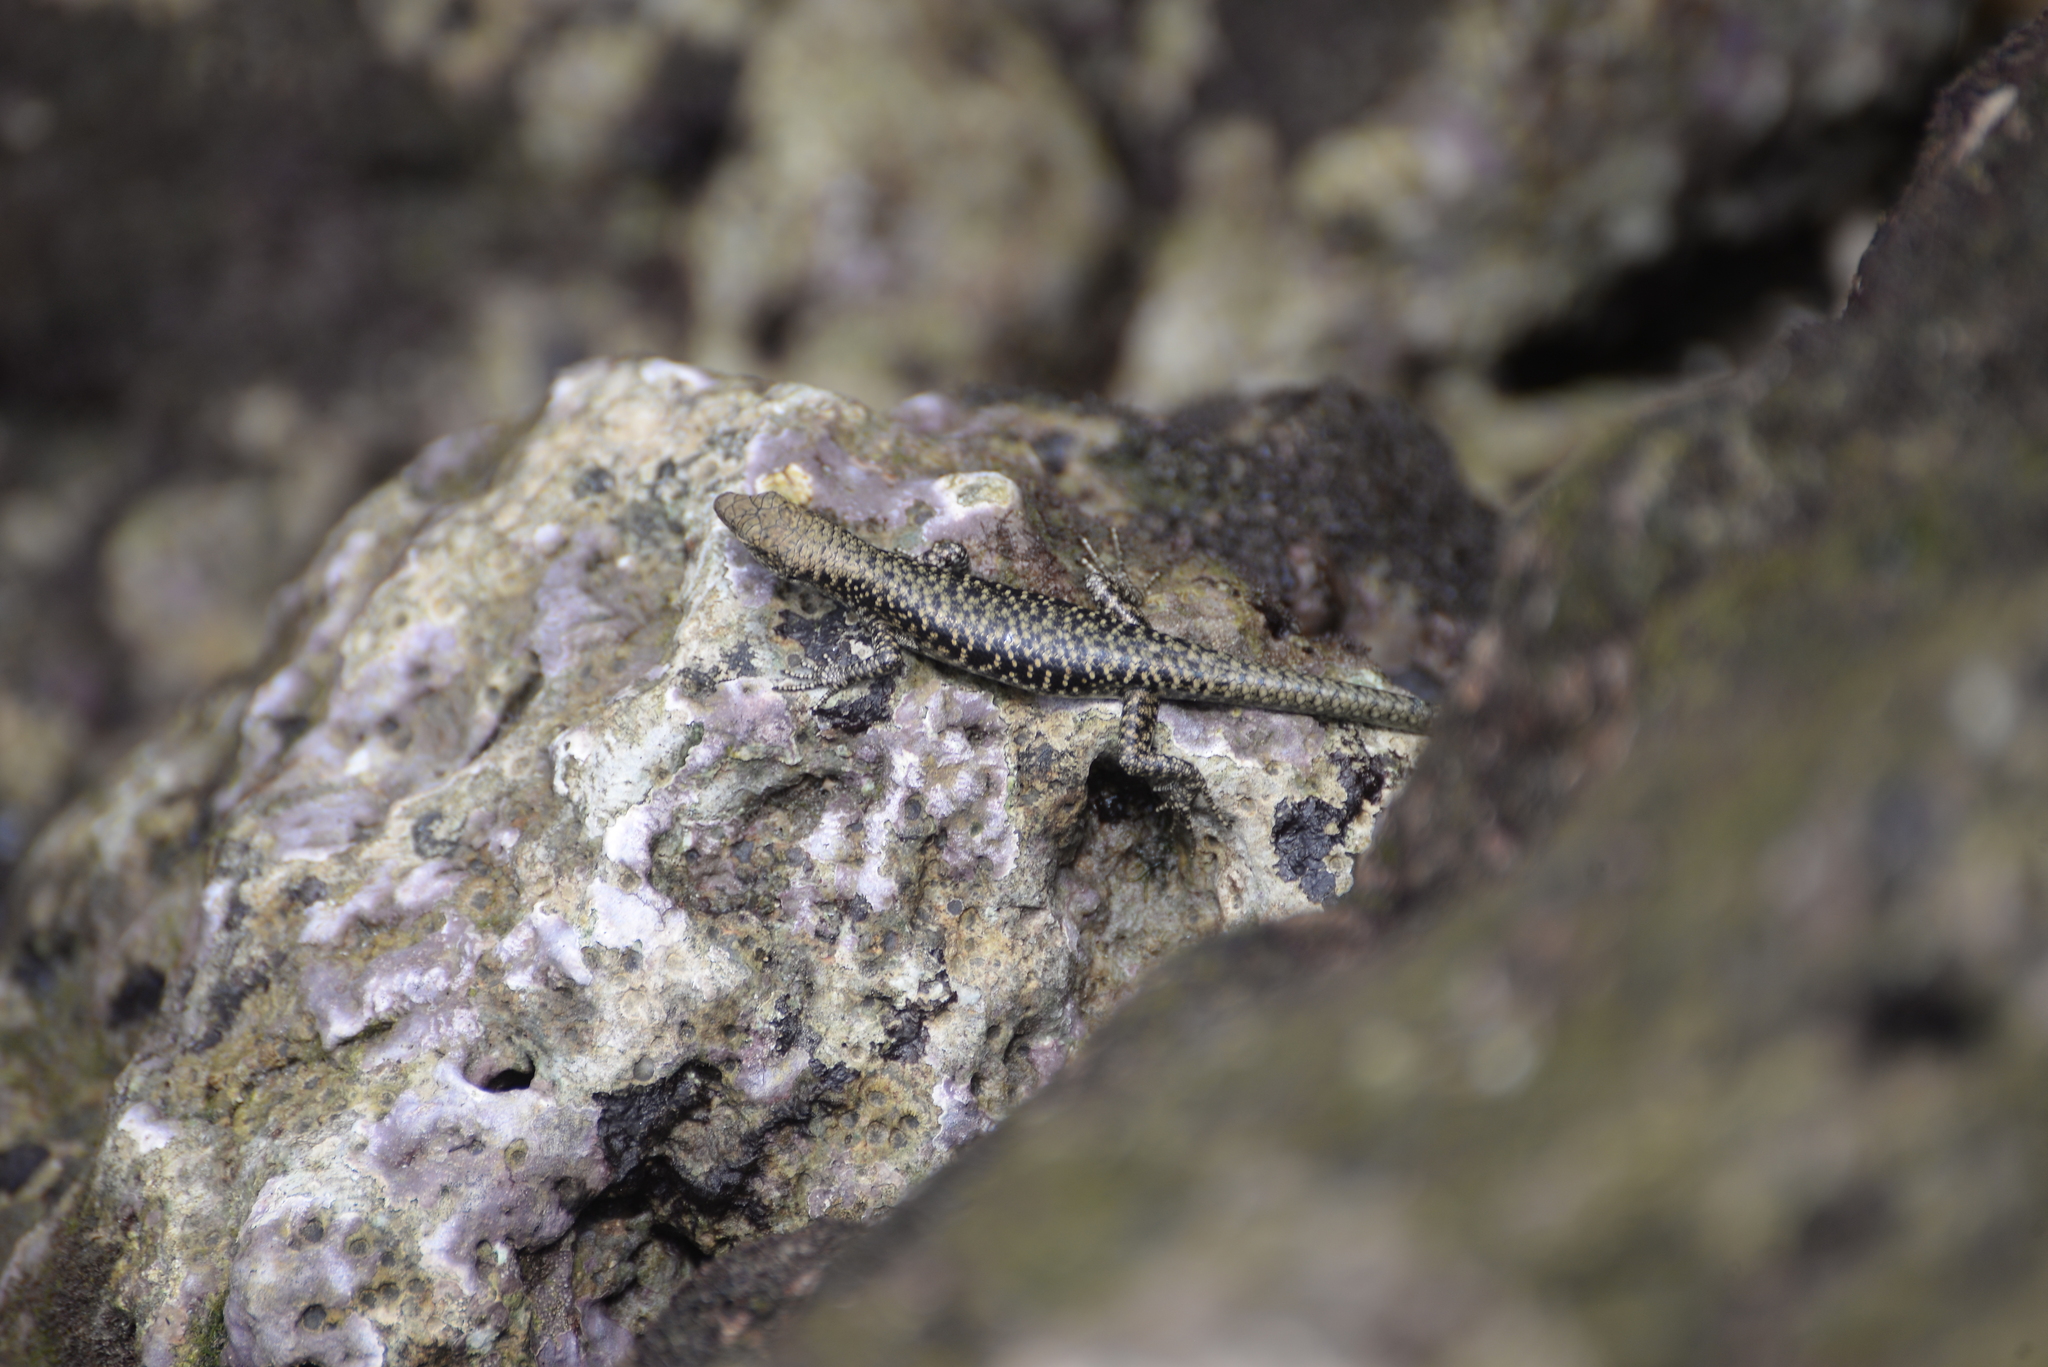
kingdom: Animalia
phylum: Chordata
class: Squamata
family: Scincidae
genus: Emoia
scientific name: Emoia atrocostata
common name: Littoral skink
